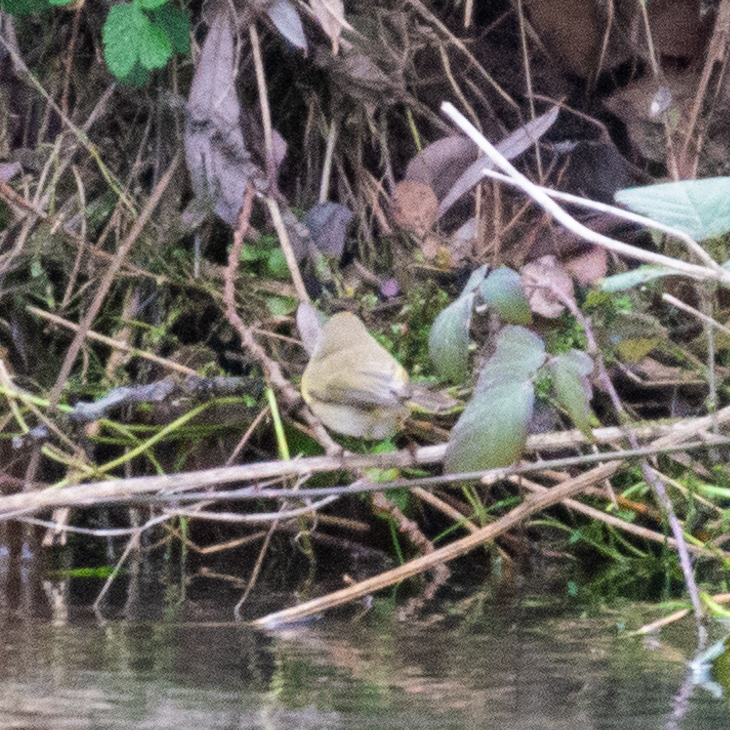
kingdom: Animalia
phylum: Chordata
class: Aves
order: Passeriformes
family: Phylloscopidae
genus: Phylloscopus
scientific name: Phylloscopus collybita
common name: Common chiffchaff
